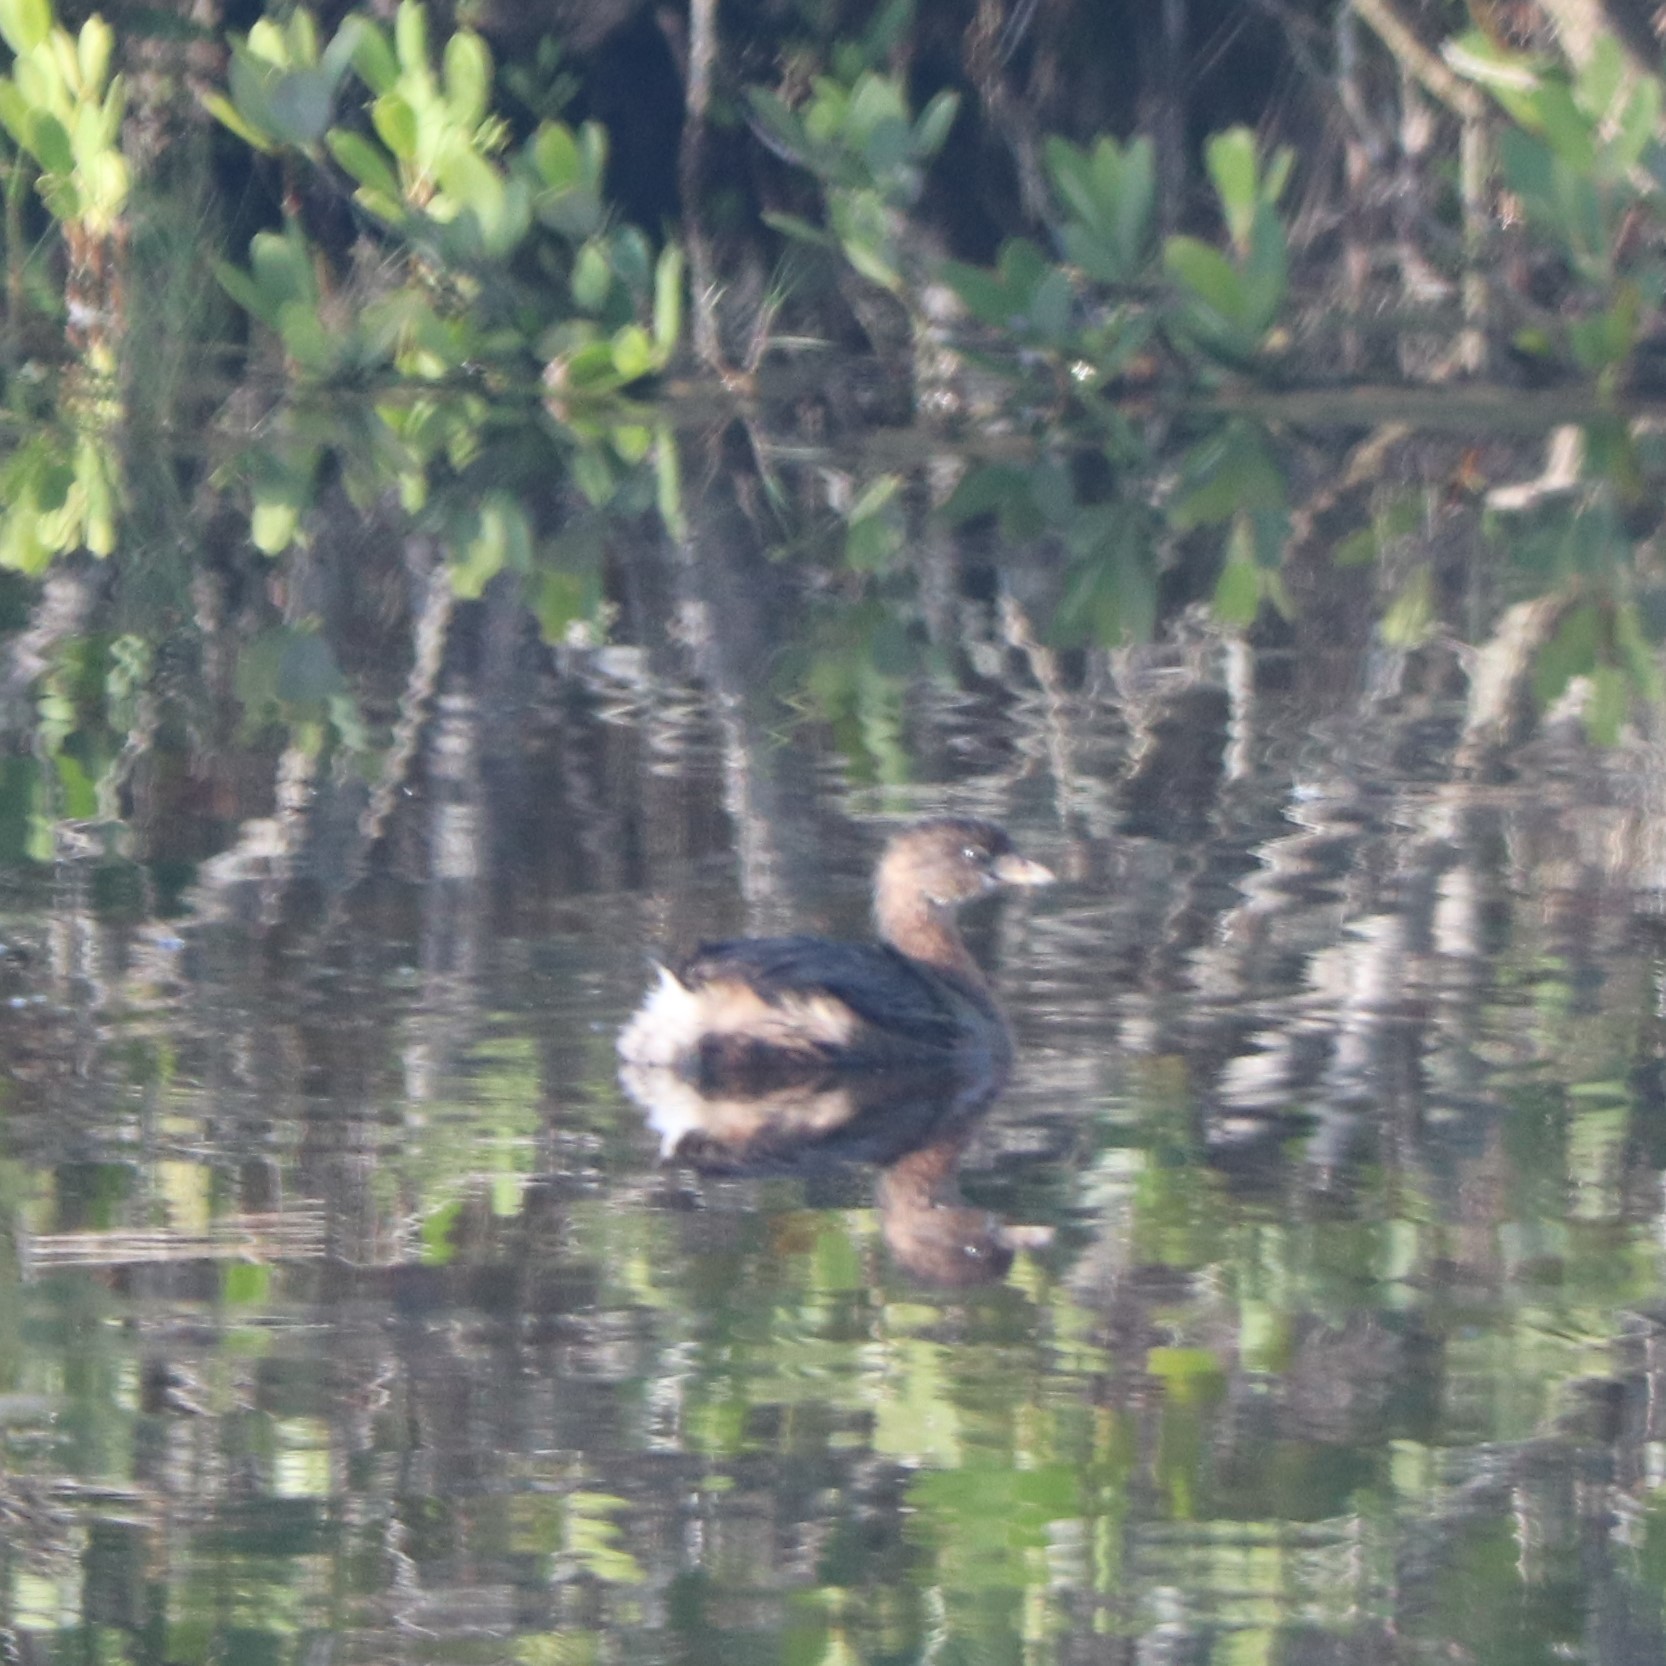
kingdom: Animalia
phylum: Chordata
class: Aves
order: Podicipediformes
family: Podicipedidae
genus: Podilymbus
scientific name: Podilymbus podiceps
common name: Pied-billed grebe
